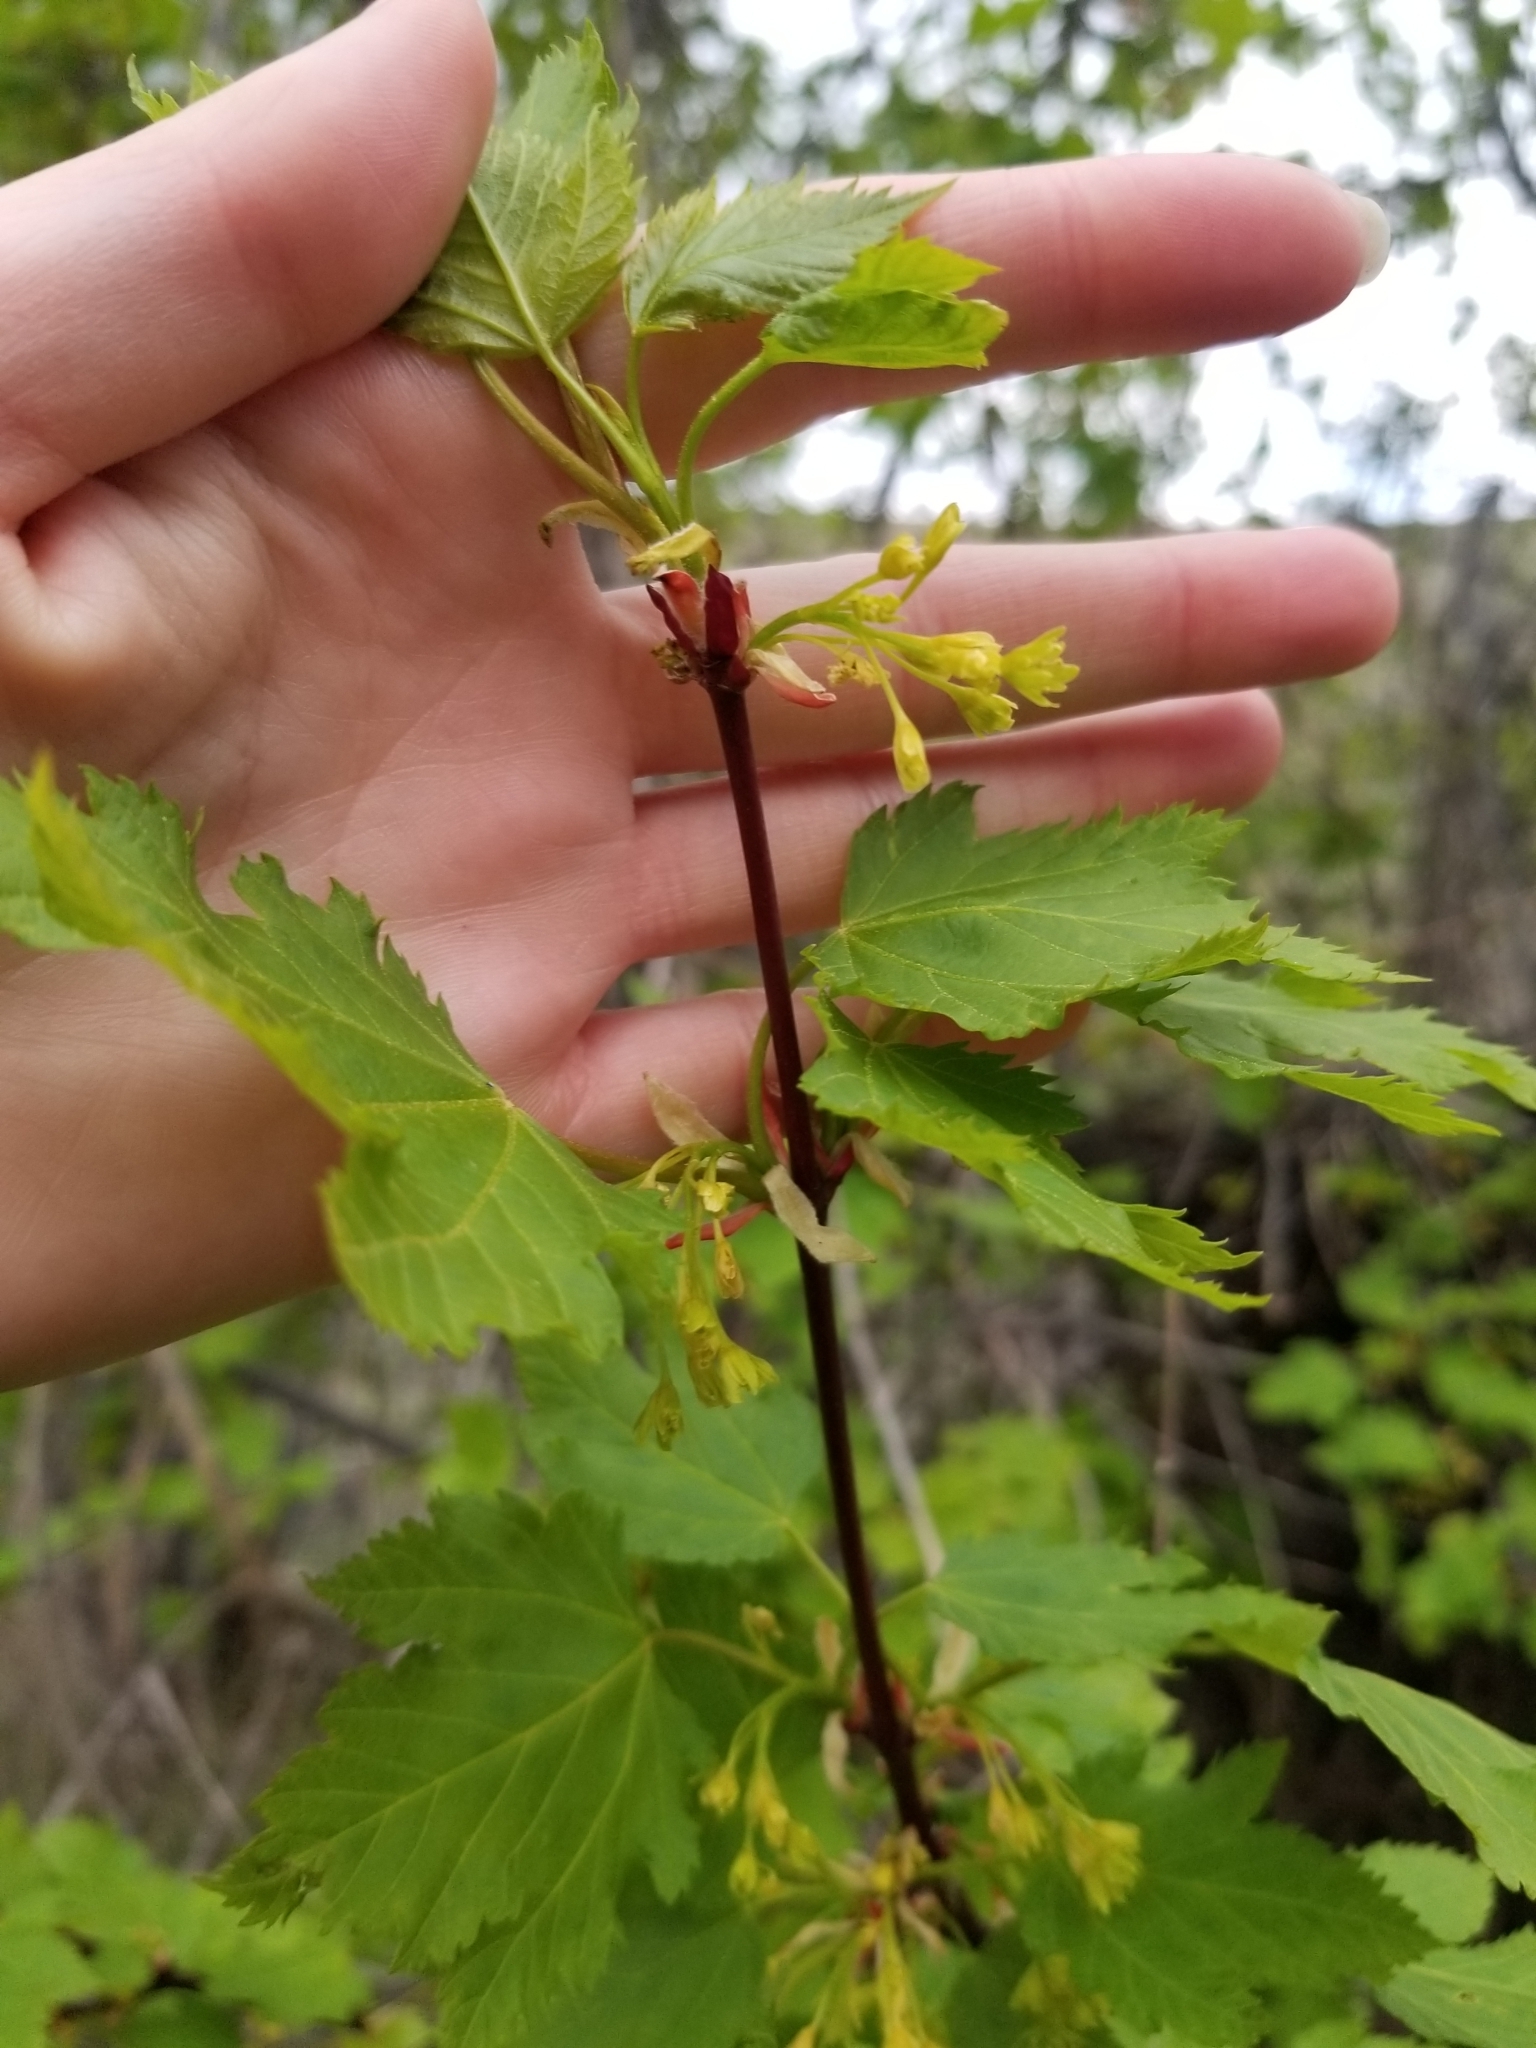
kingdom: Plantae
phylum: Tracheophyta
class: Magnoliopsida
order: Sapindales
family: Sapindaceae
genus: Acer
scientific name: Acer glabrum
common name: Rocky mountain maple
